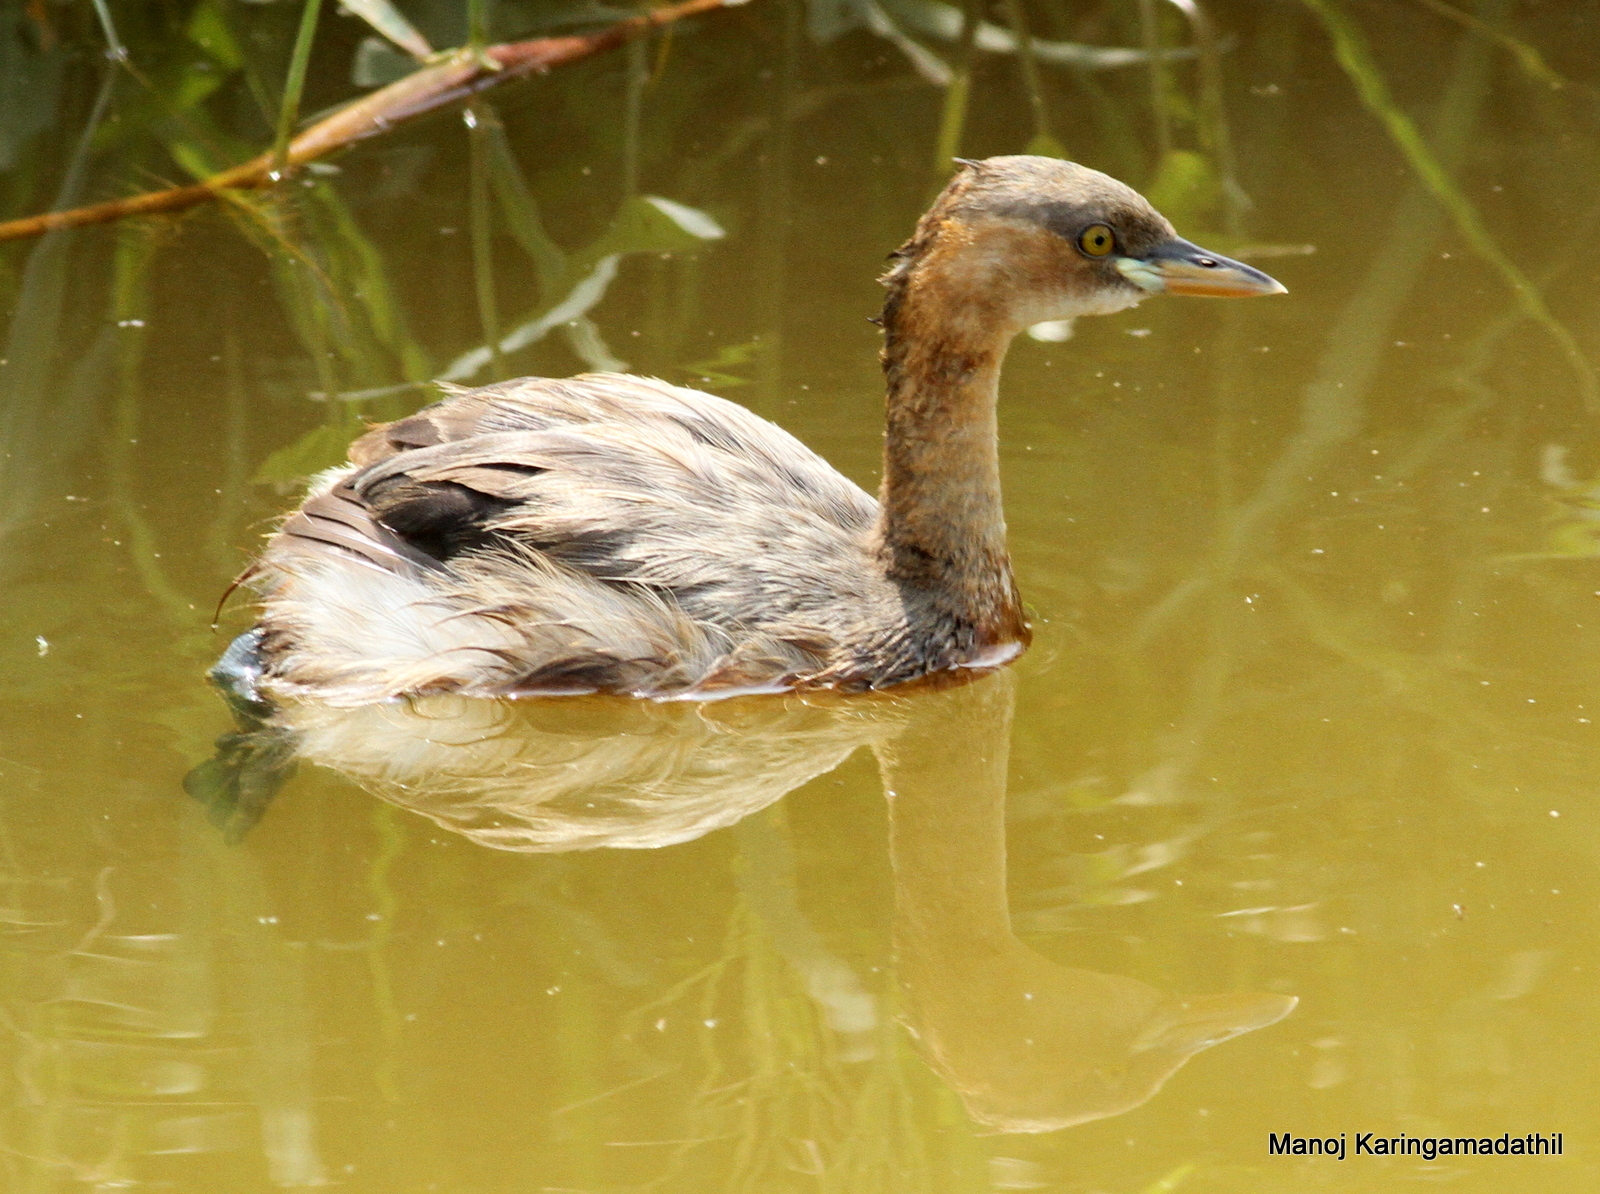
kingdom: Animalia
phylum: Chordata
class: Aves
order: Podicipediformes
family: Podicipedidae
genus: Tachybaptus
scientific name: Tachybaptus ruficollis
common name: Little grebe
